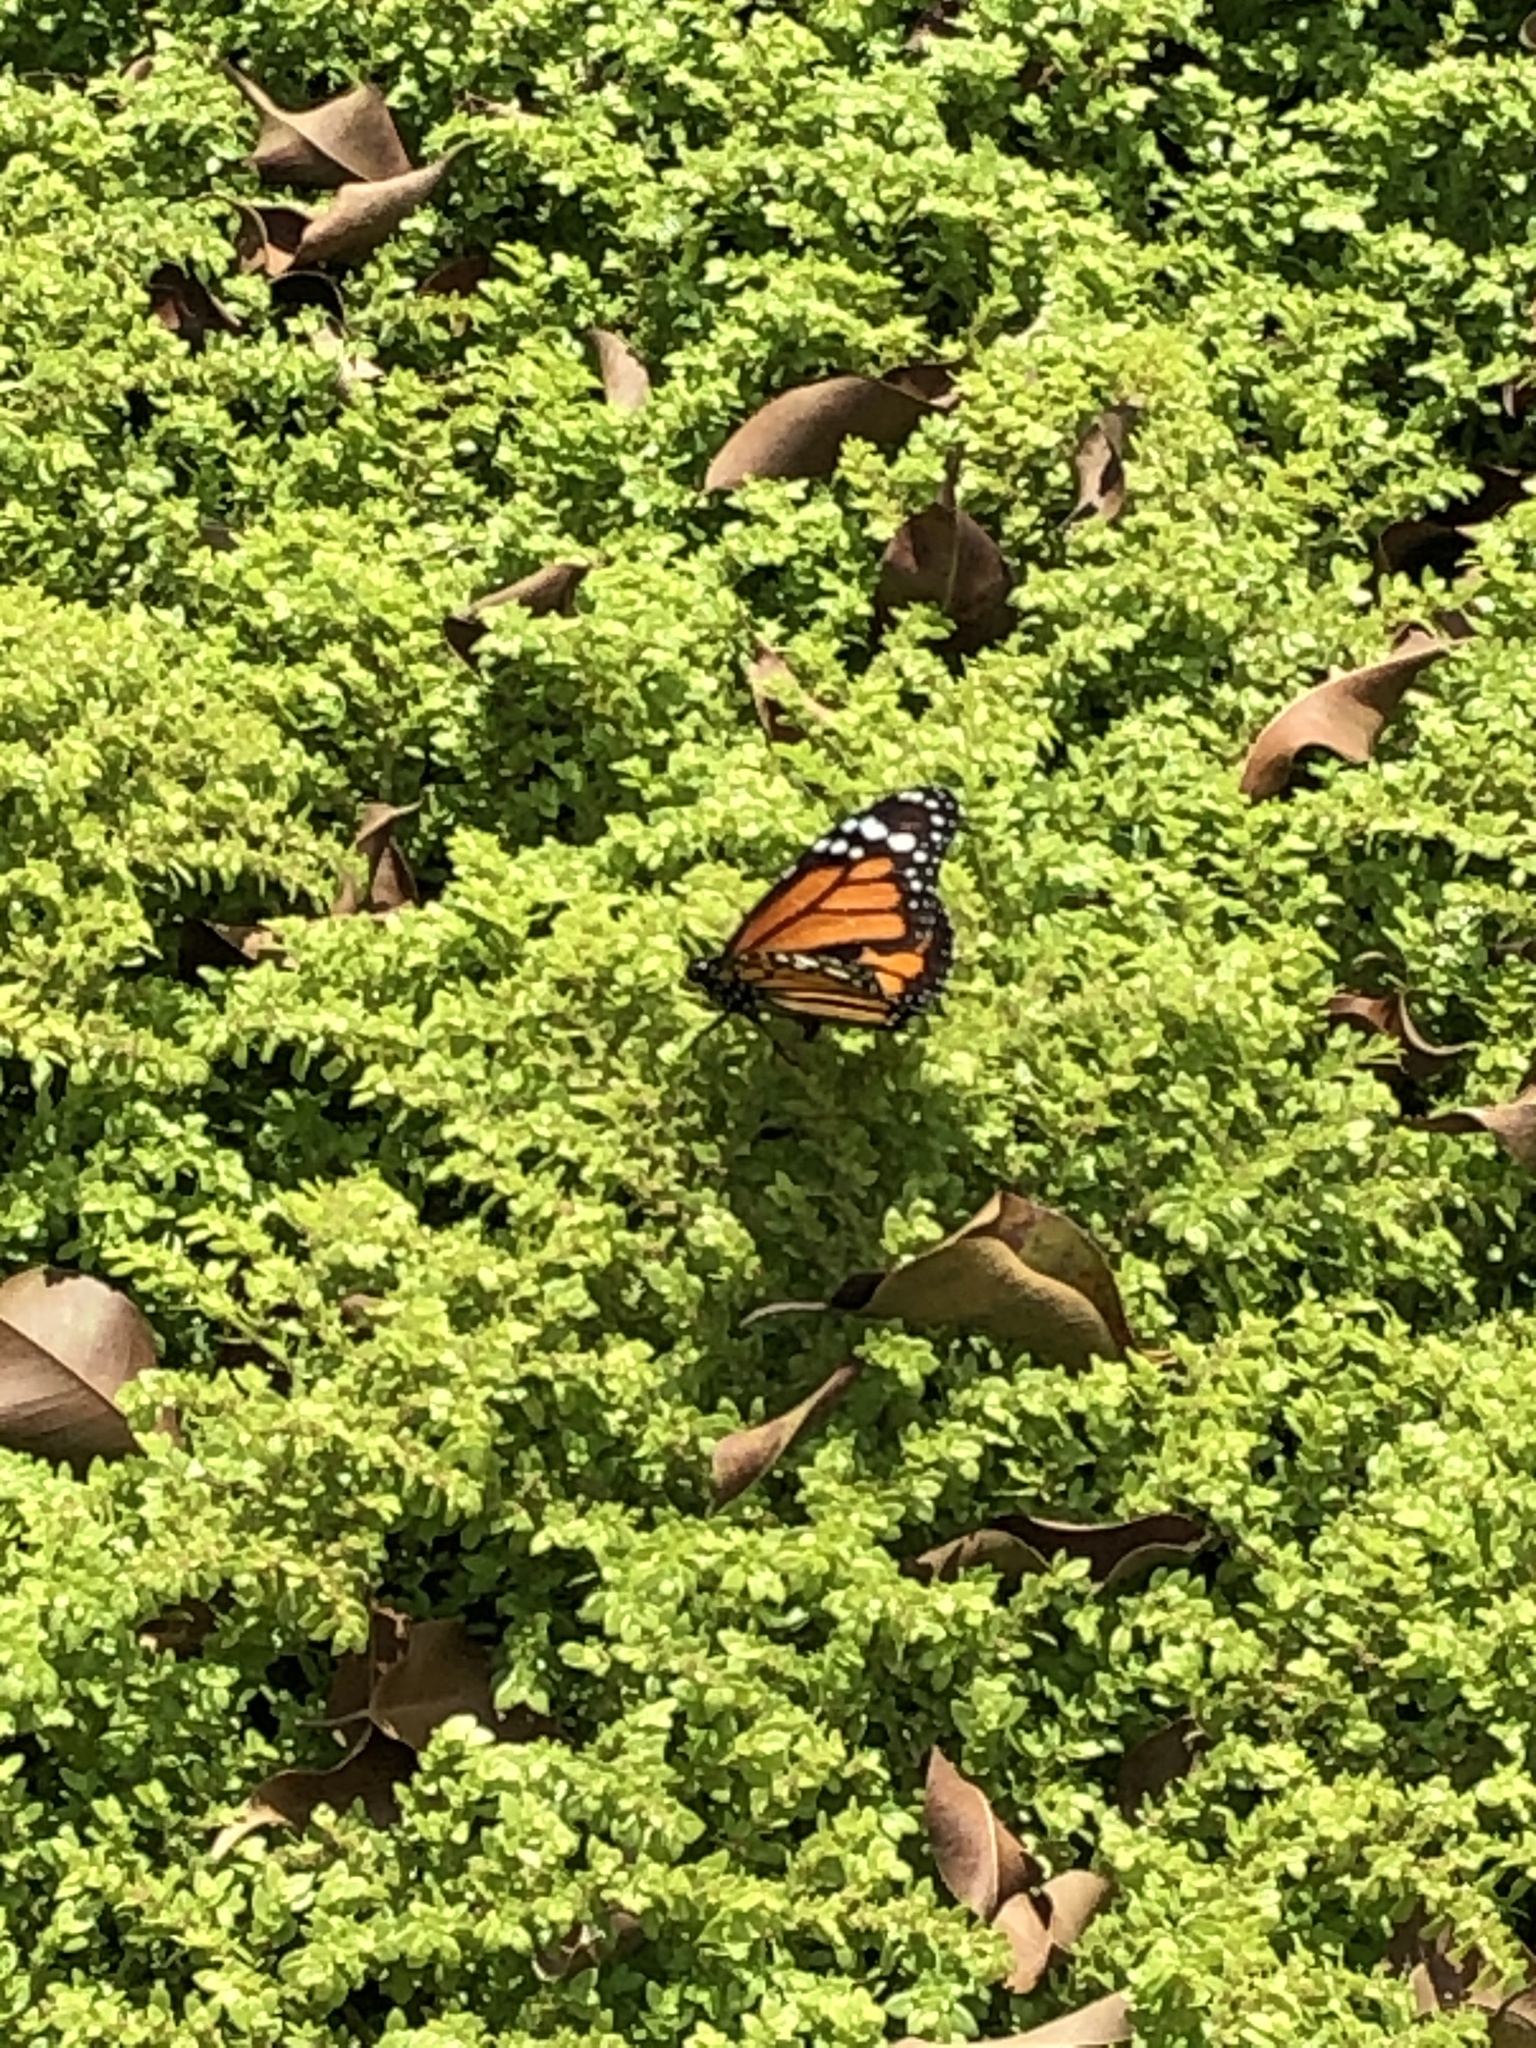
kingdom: Animalia
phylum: Arthropoda
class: Insecta
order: Lepidoptera
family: Nymphalidae
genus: Danaus
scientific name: Danaus plexippus
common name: Monarch
